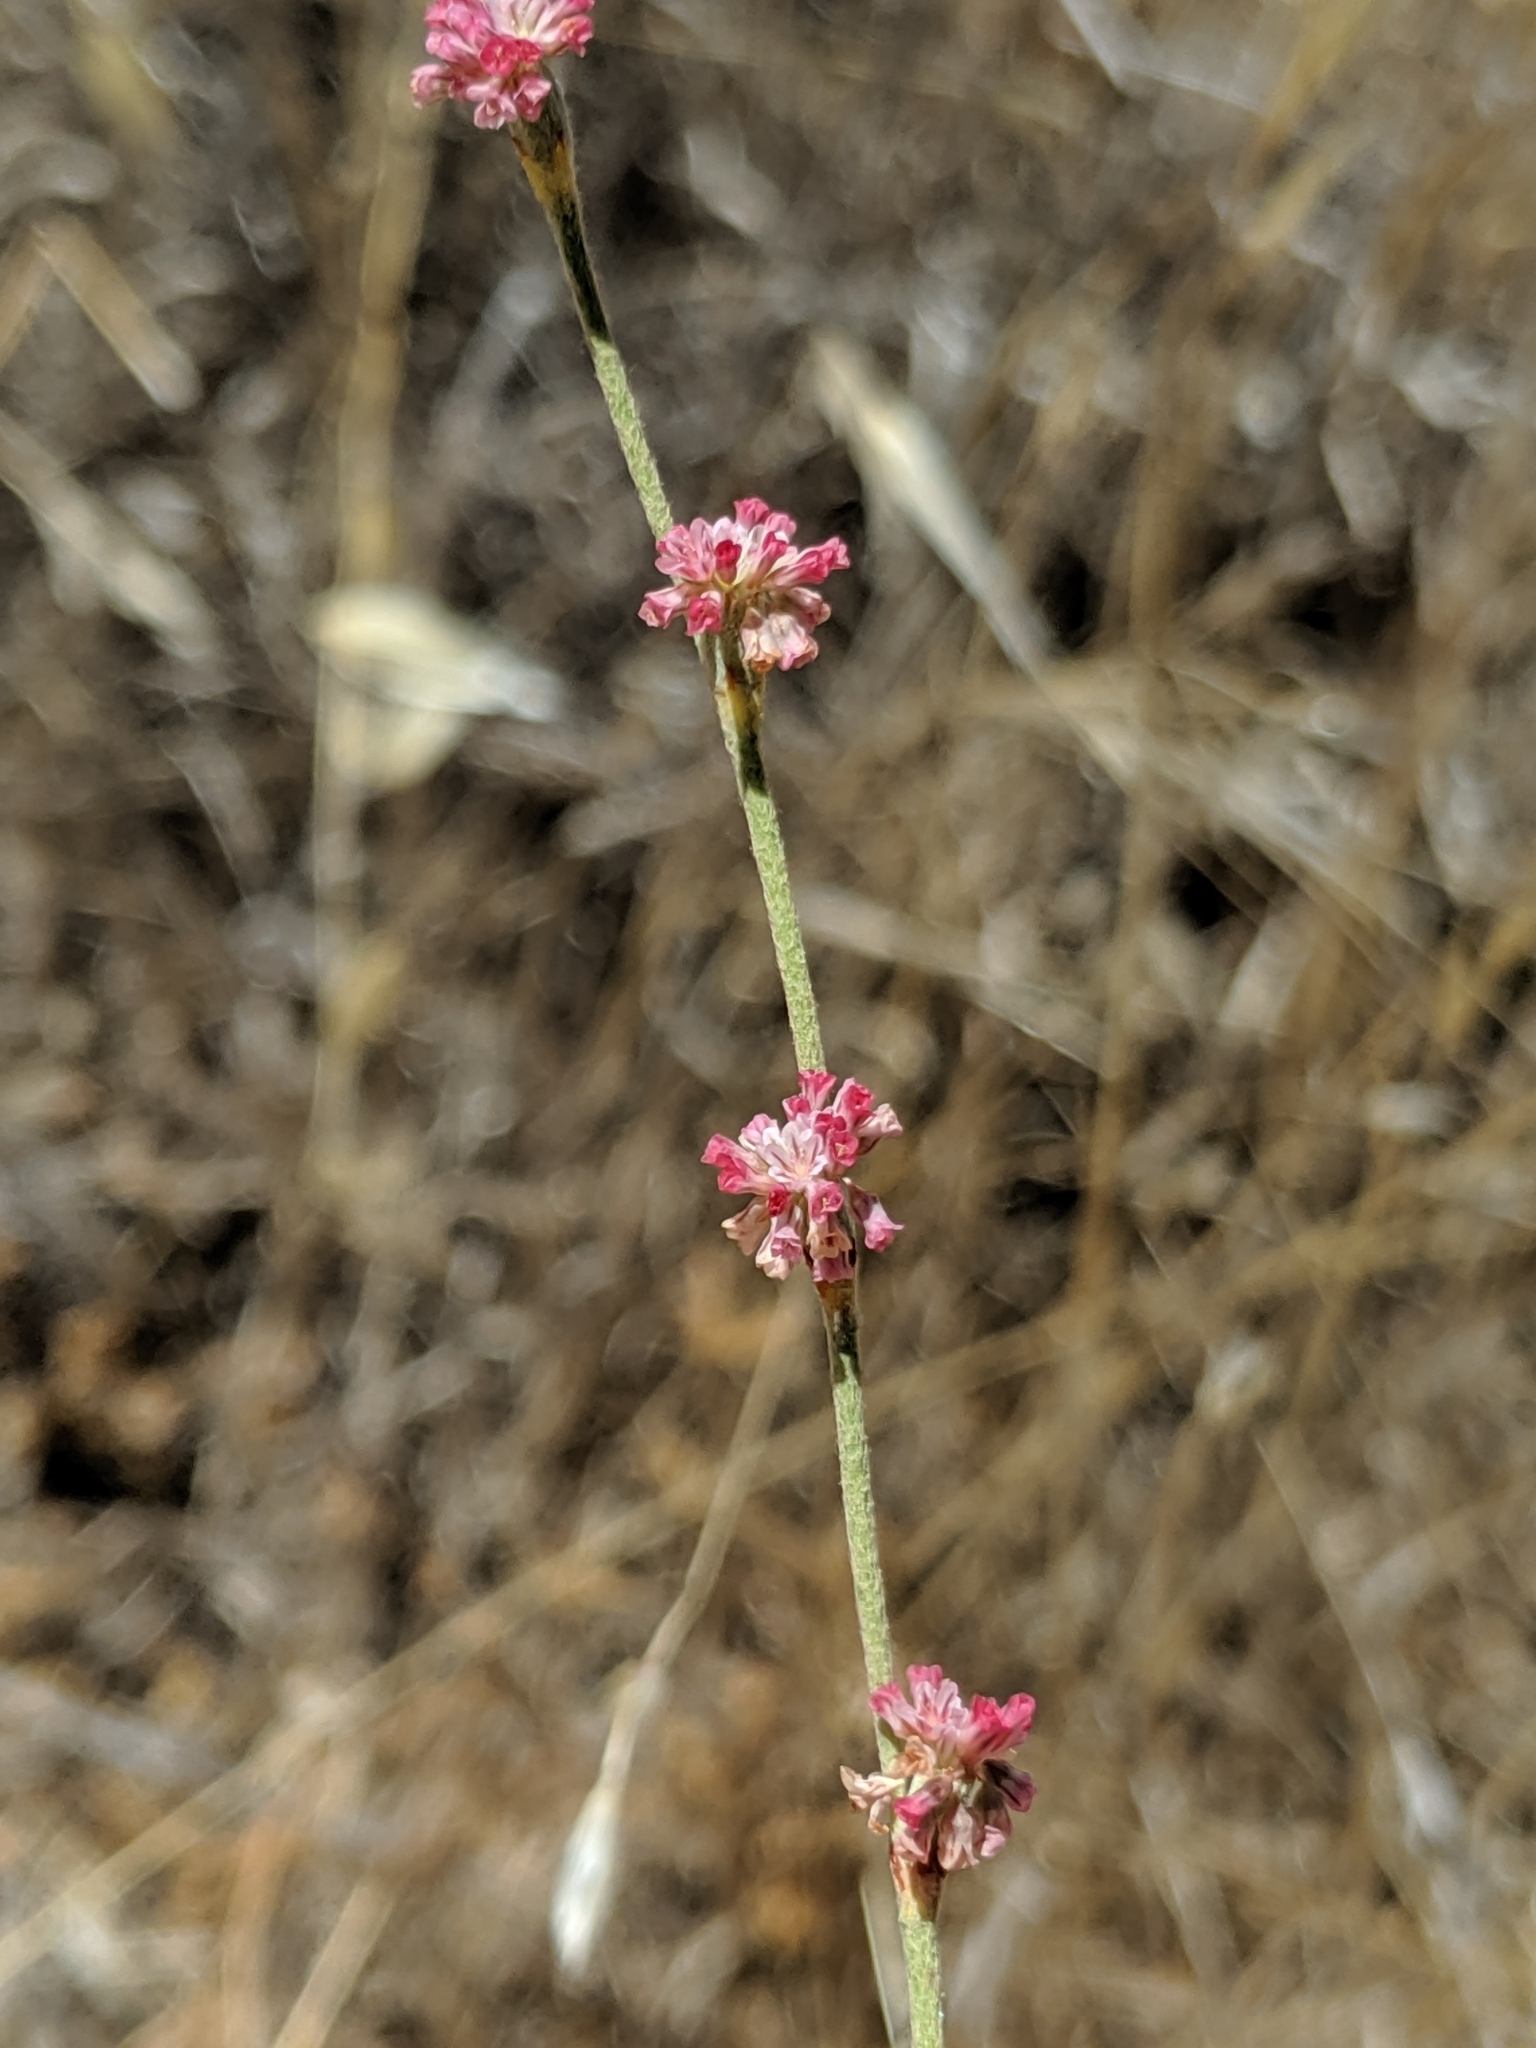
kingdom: Plantae
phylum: Tracheophyta
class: Magnoliopsida
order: Caryophyllales
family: Polygonaceae
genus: Eriogonum
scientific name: Eriogonum roseum
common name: Wand wild buckwheat
